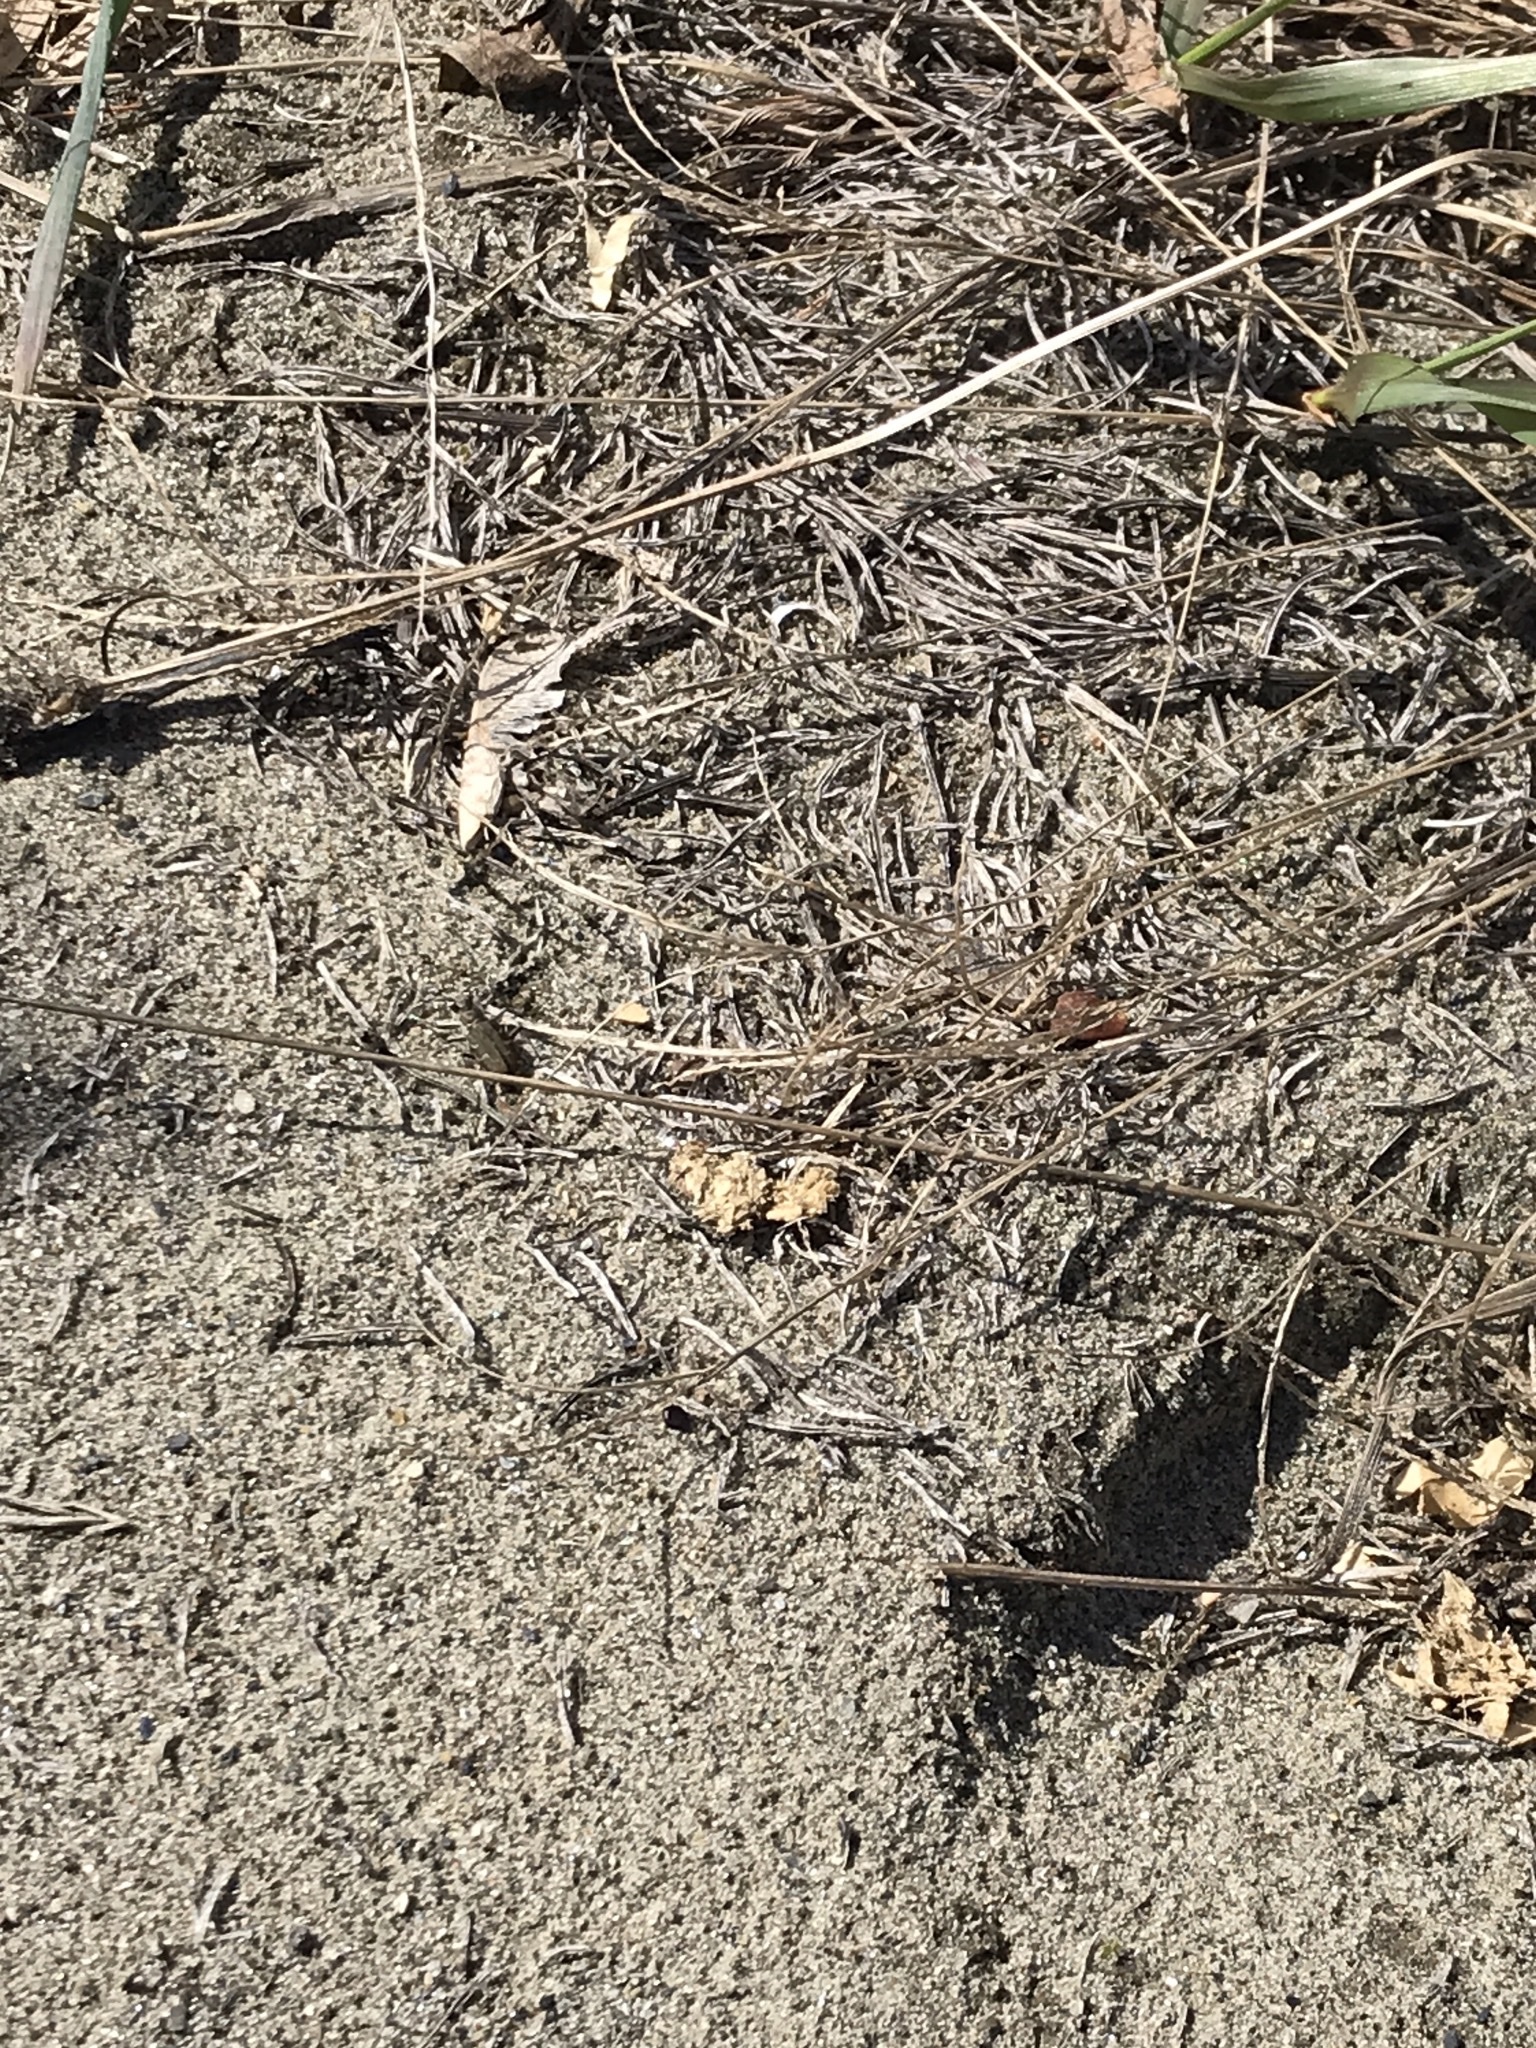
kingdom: Animalia
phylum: Arthropoda
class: Insecta
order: Coleoptera
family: Carabidae
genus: Cicindela
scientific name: Cicindela repanda
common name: Bronzed tiger beetle
